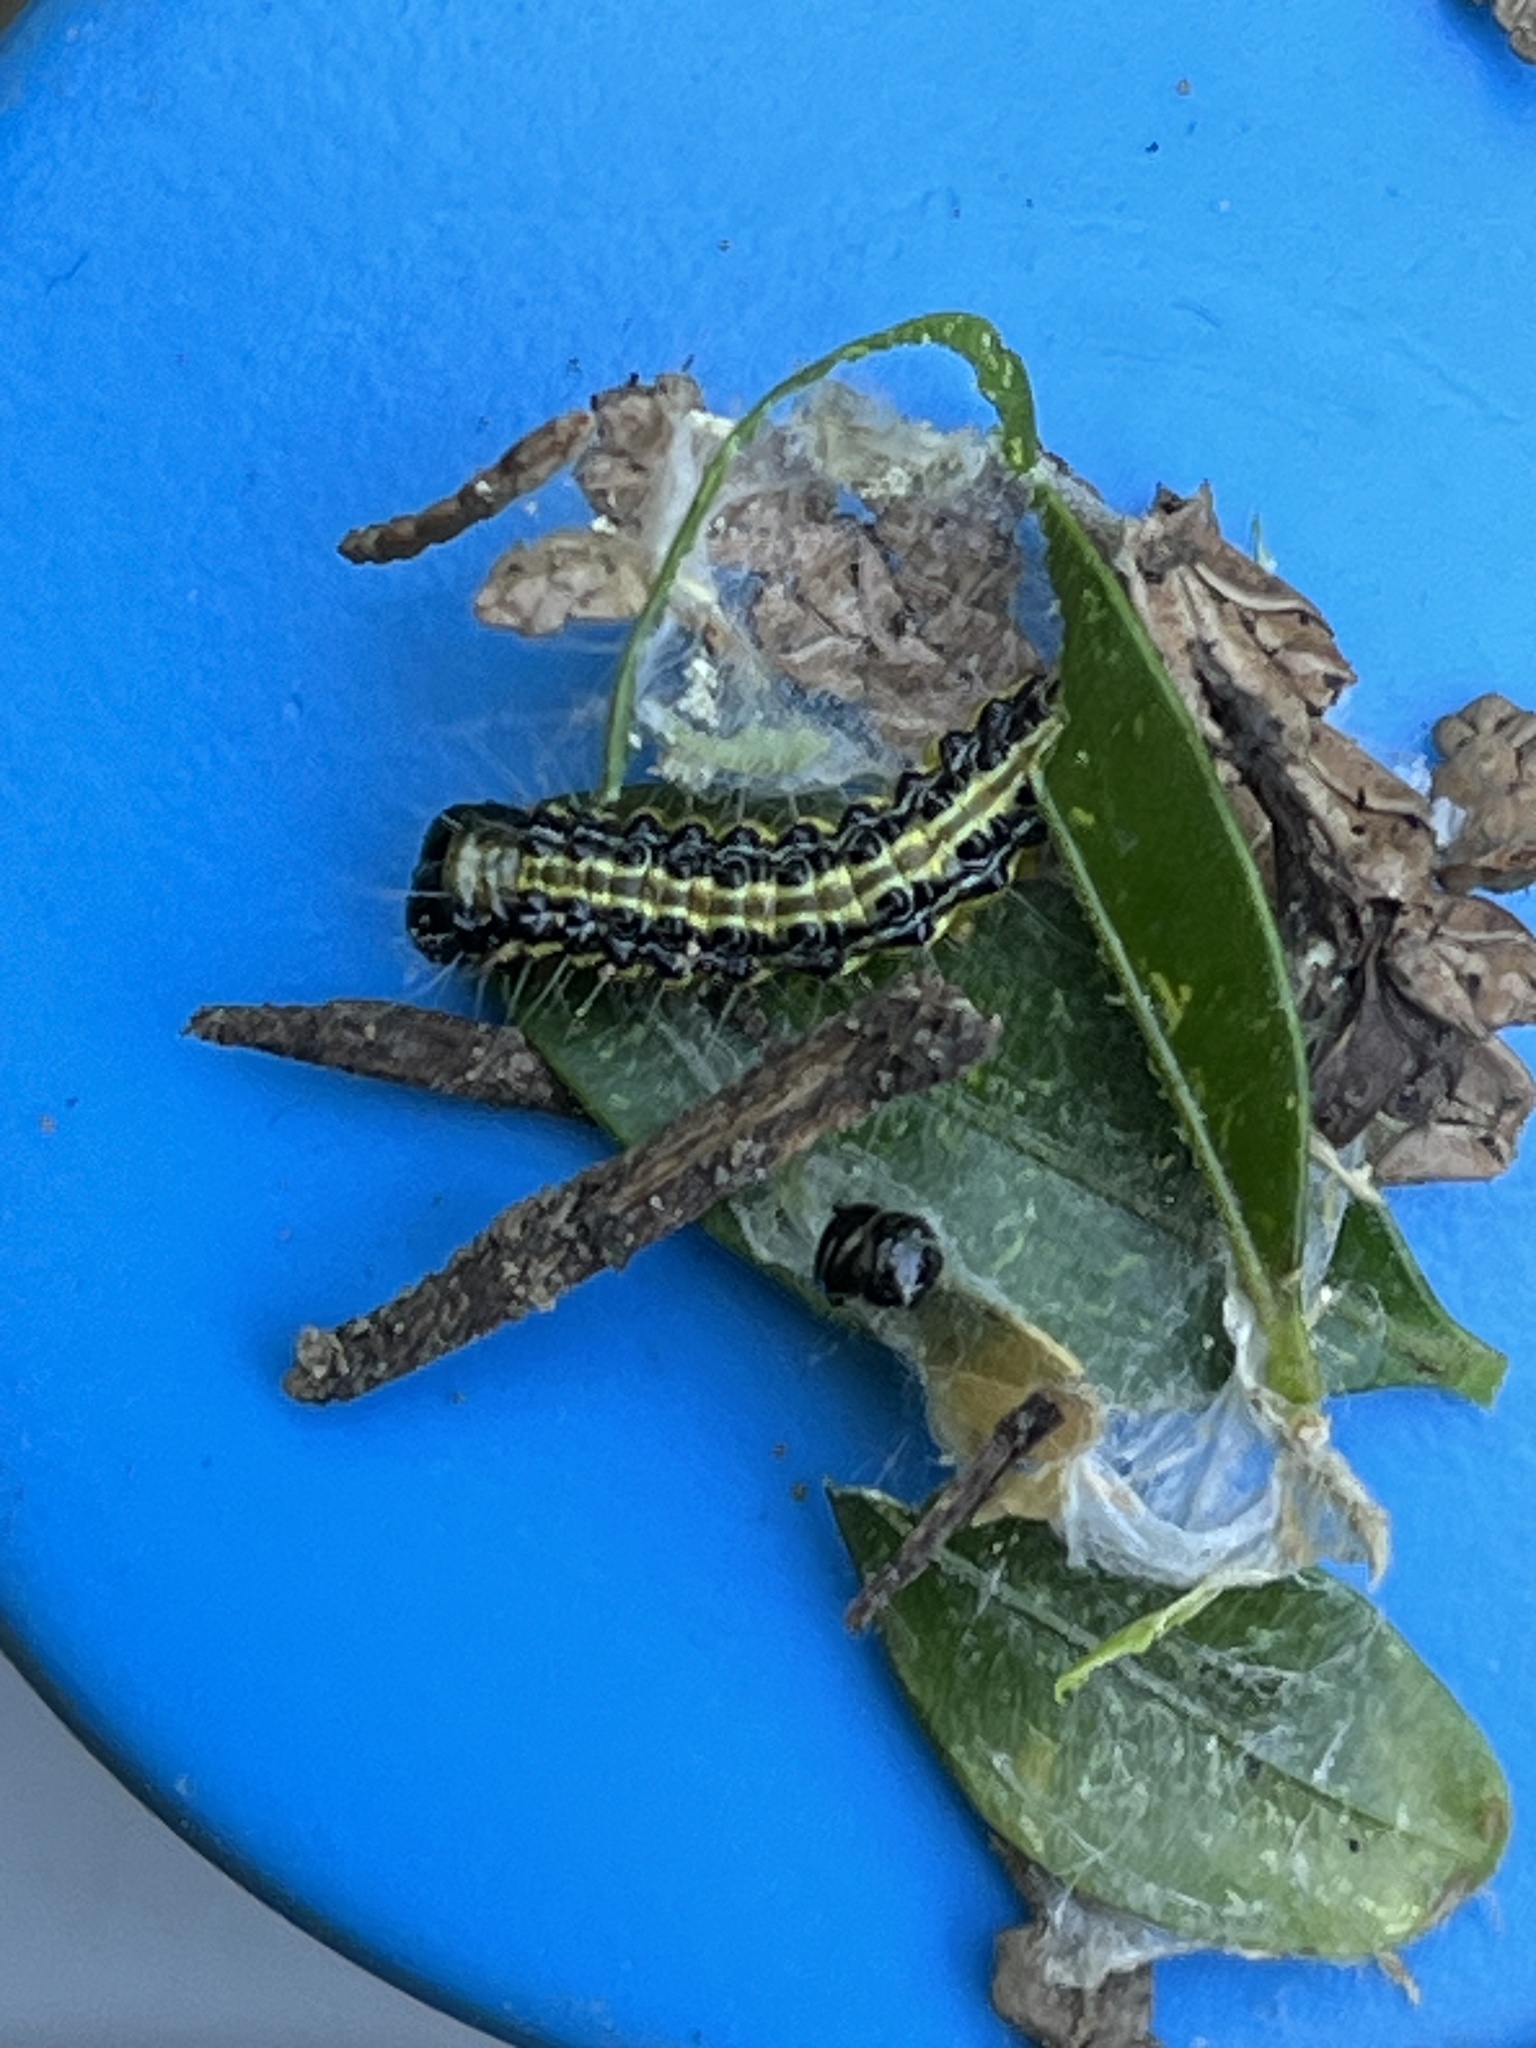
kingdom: Animalia
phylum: Arthropoda
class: Insecta
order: Lepidoptera
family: Crambidae
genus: Cydalima
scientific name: Cydalima perspectalis
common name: Box tree moth
